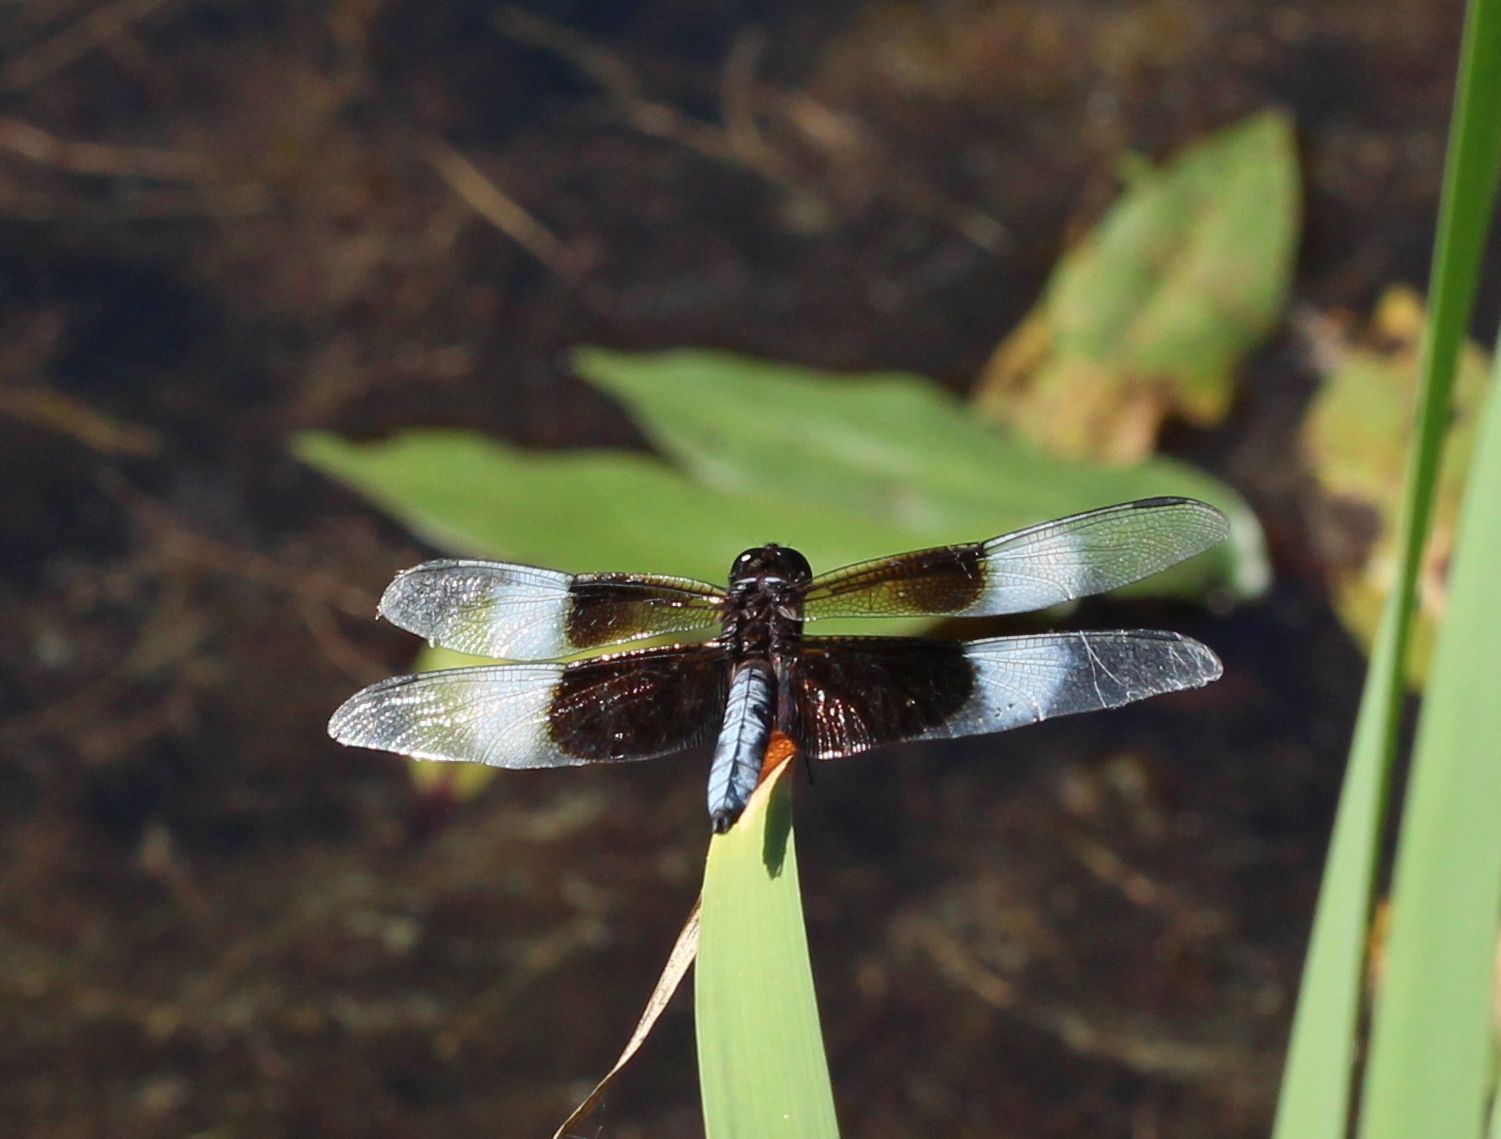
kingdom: Animalia
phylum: Arthropoda
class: Insecta
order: Odonata
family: Libellulidae
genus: Libellula
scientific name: Libellula luctuosa
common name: Widow skimmer
